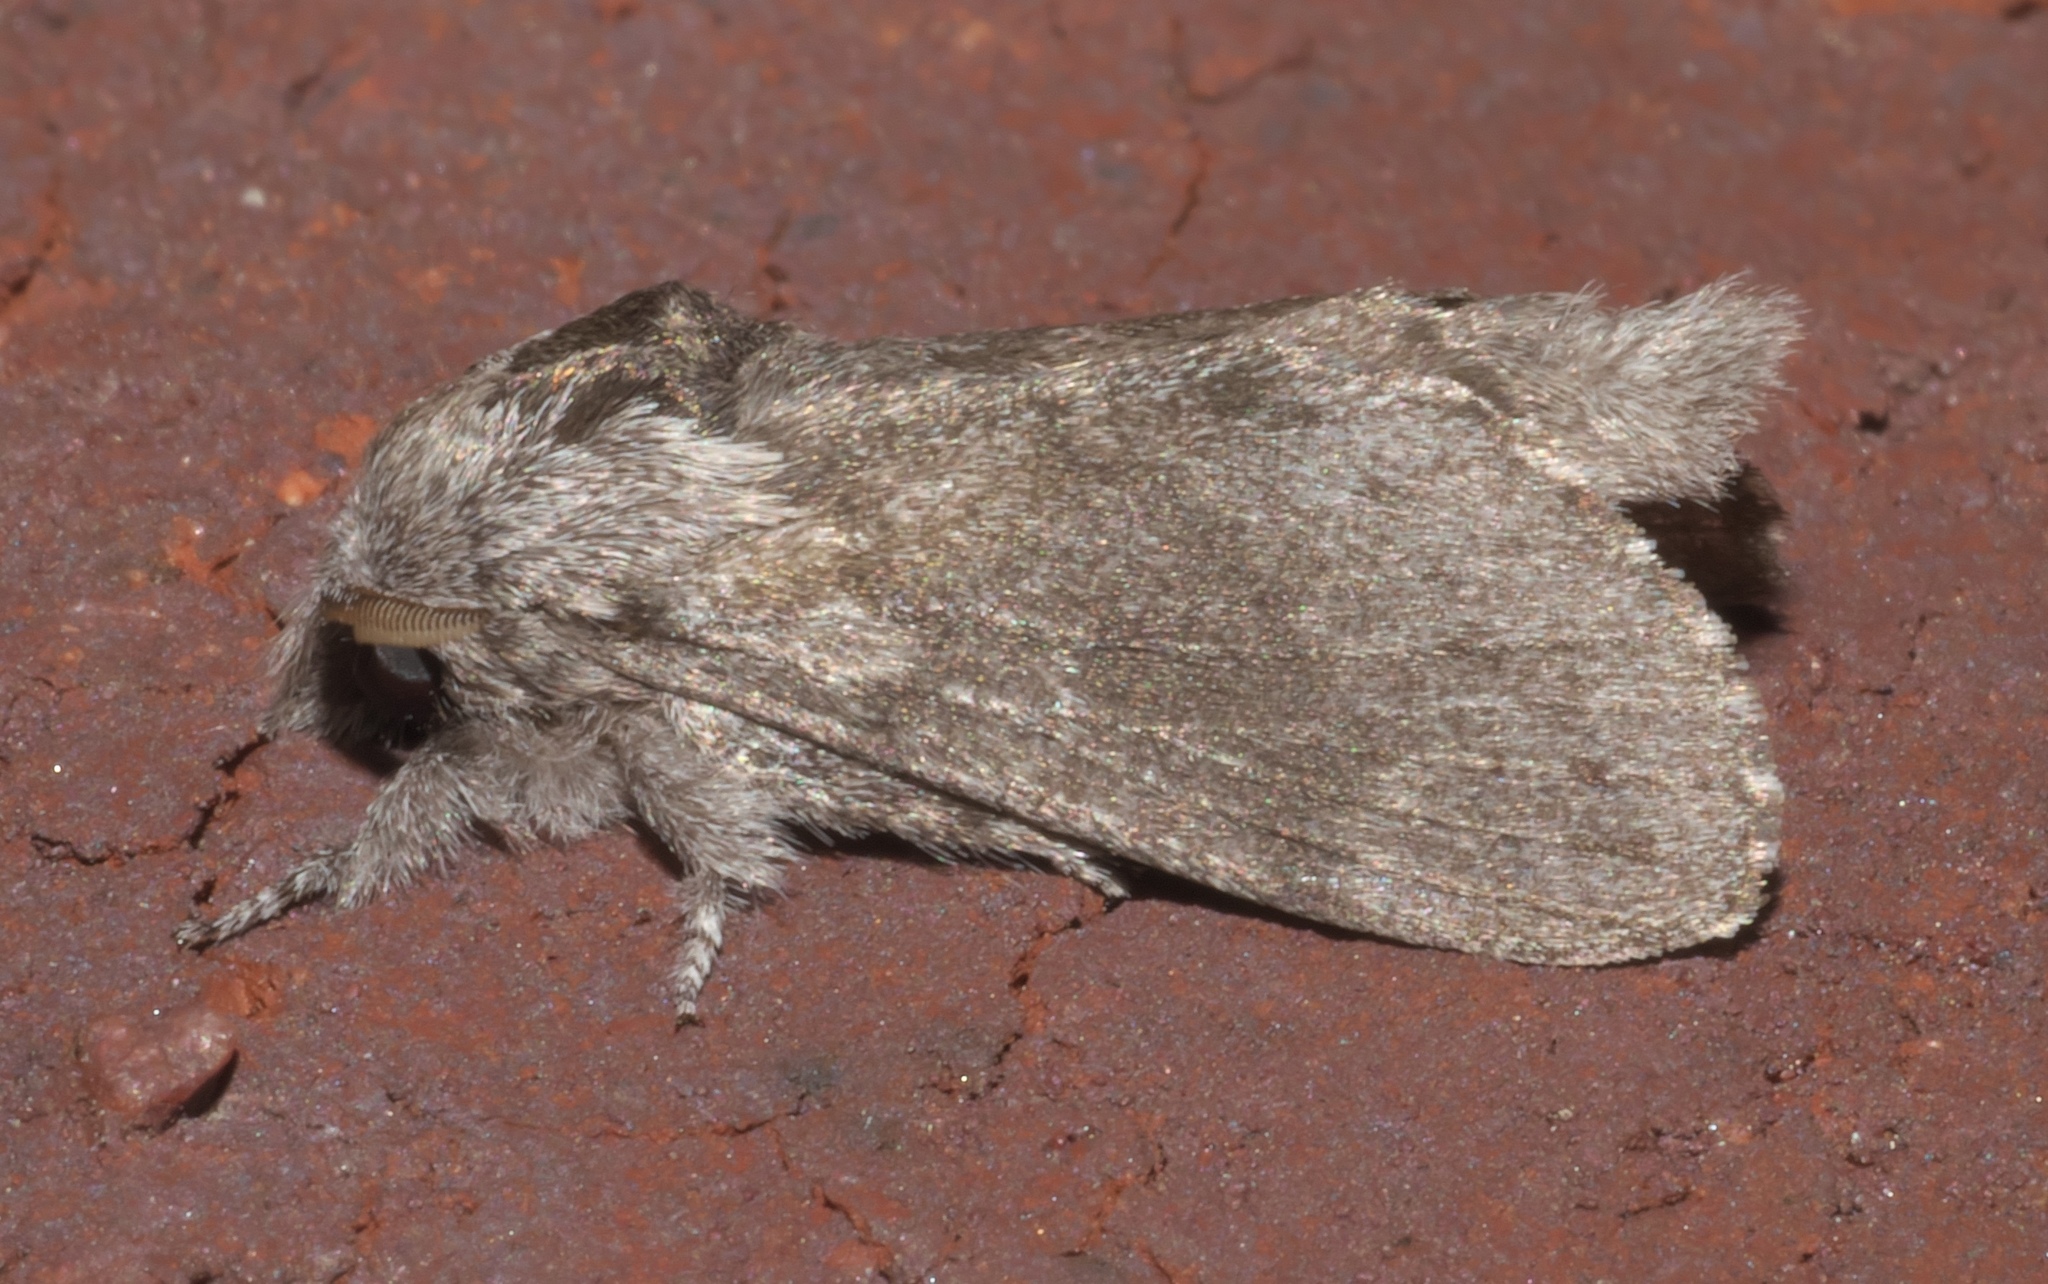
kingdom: Animalia
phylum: Arthropoda
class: Insecta
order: Lepidoptera
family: Lasiocampidae
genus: Heteropacha
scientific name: Heteropacha rileyana
